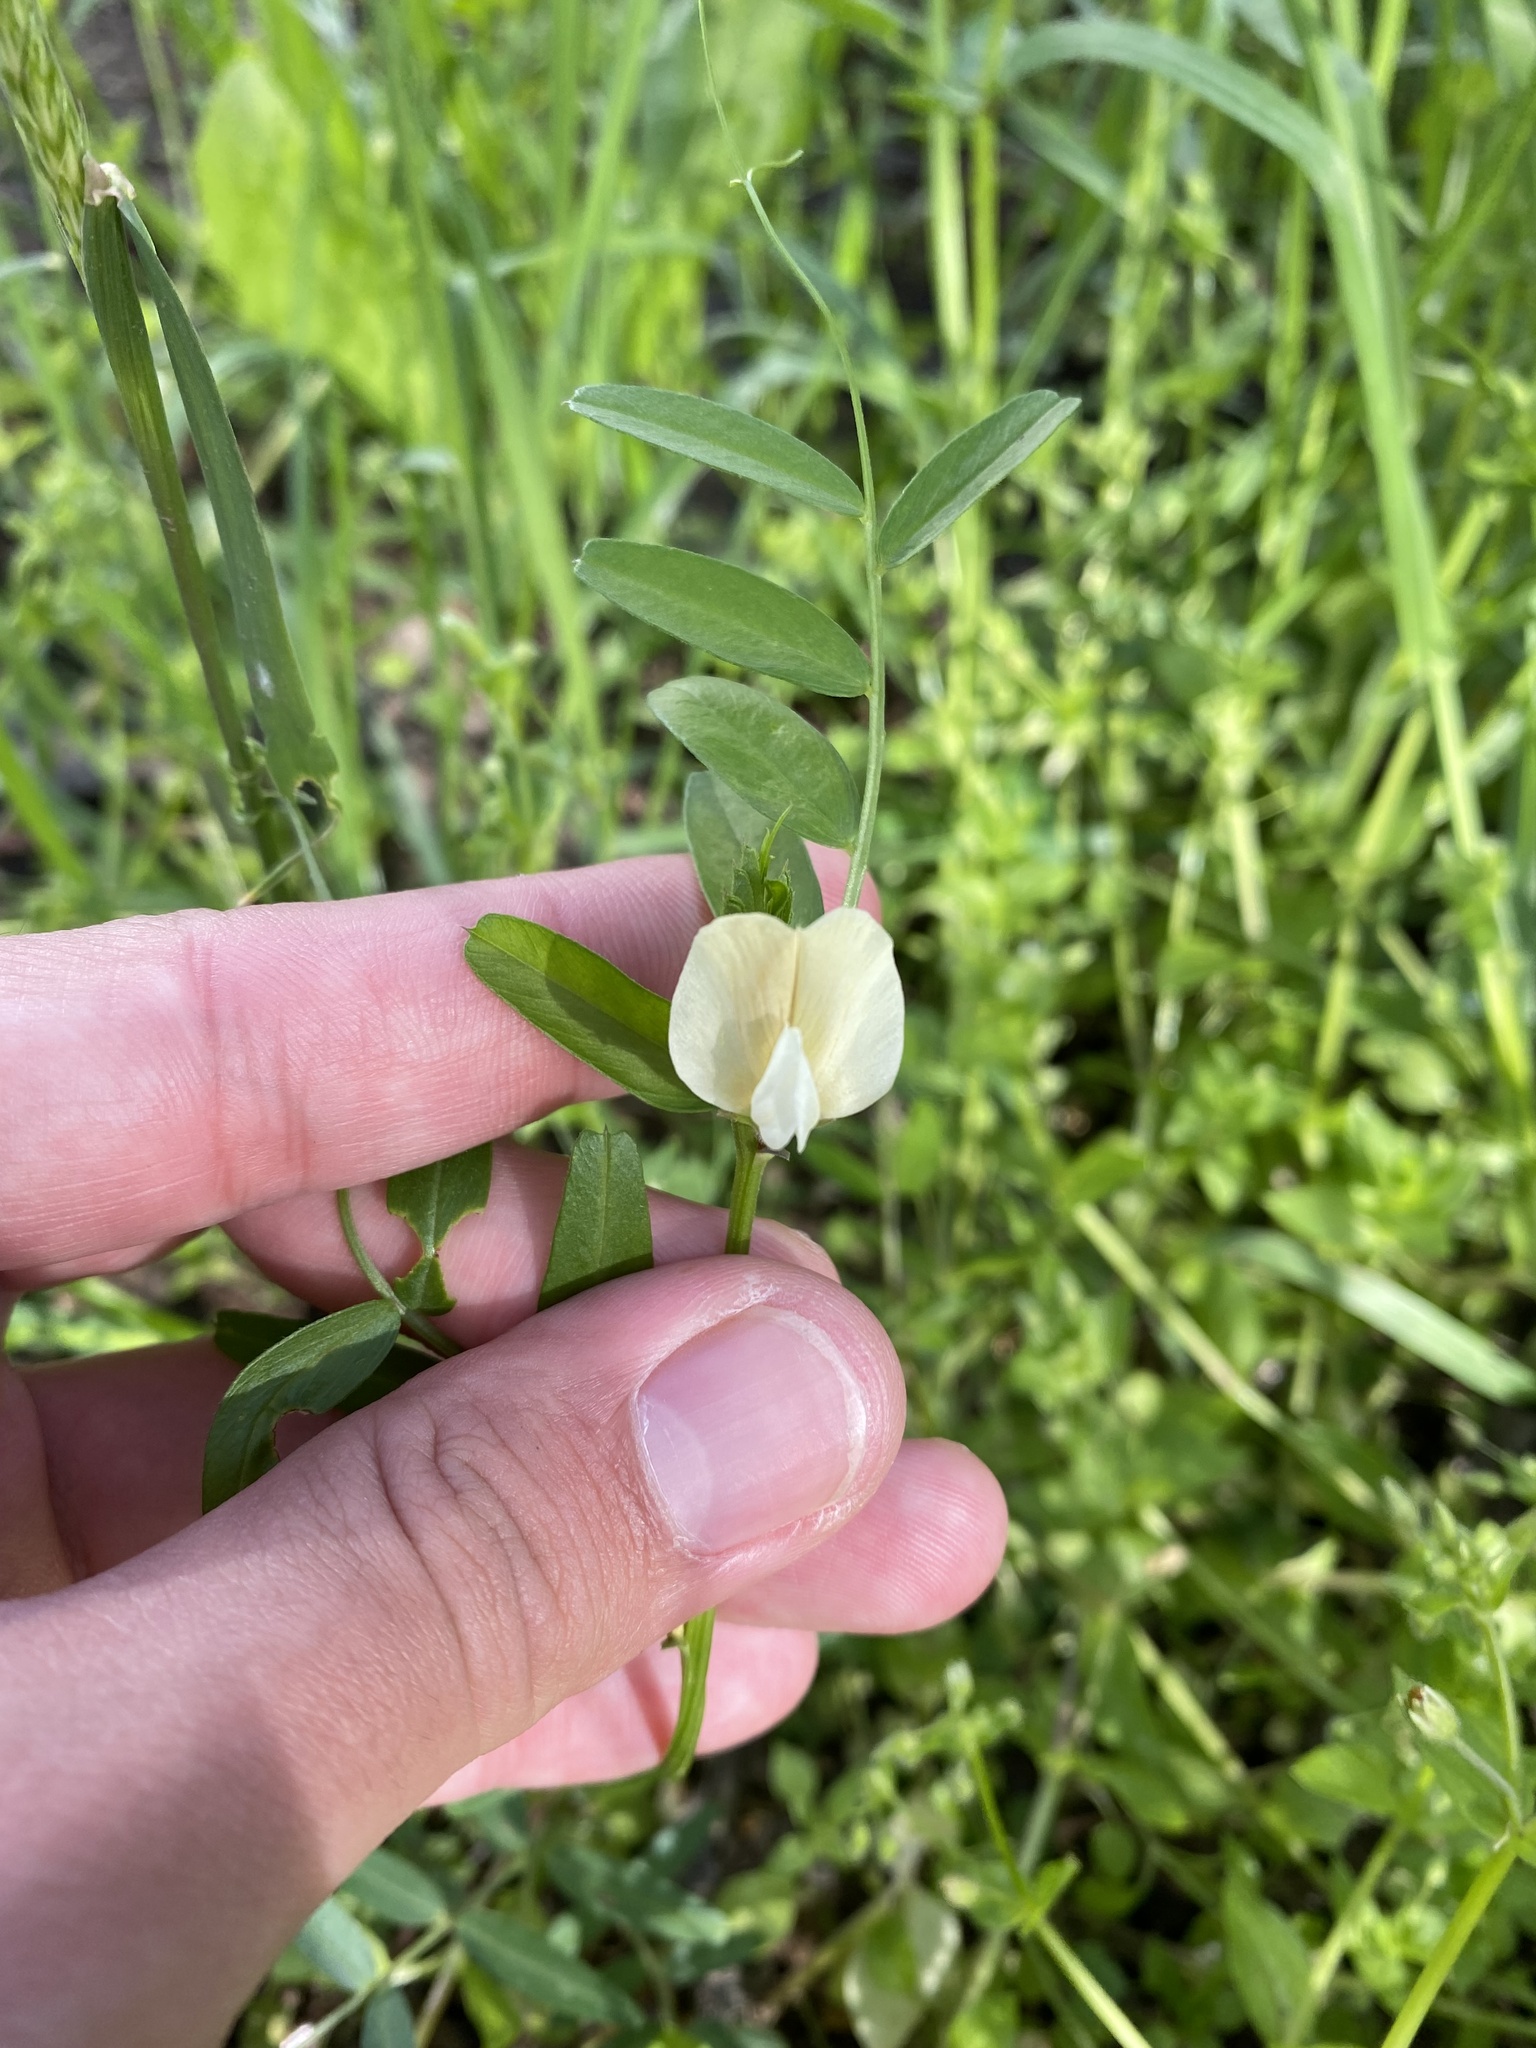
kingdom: Plantae
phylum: Tracheophyta
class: Magnoliopsida
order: Fabales
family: Fabaceae
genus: Vicia
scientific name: Vicia grandiflora
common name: Large yellow vetch
